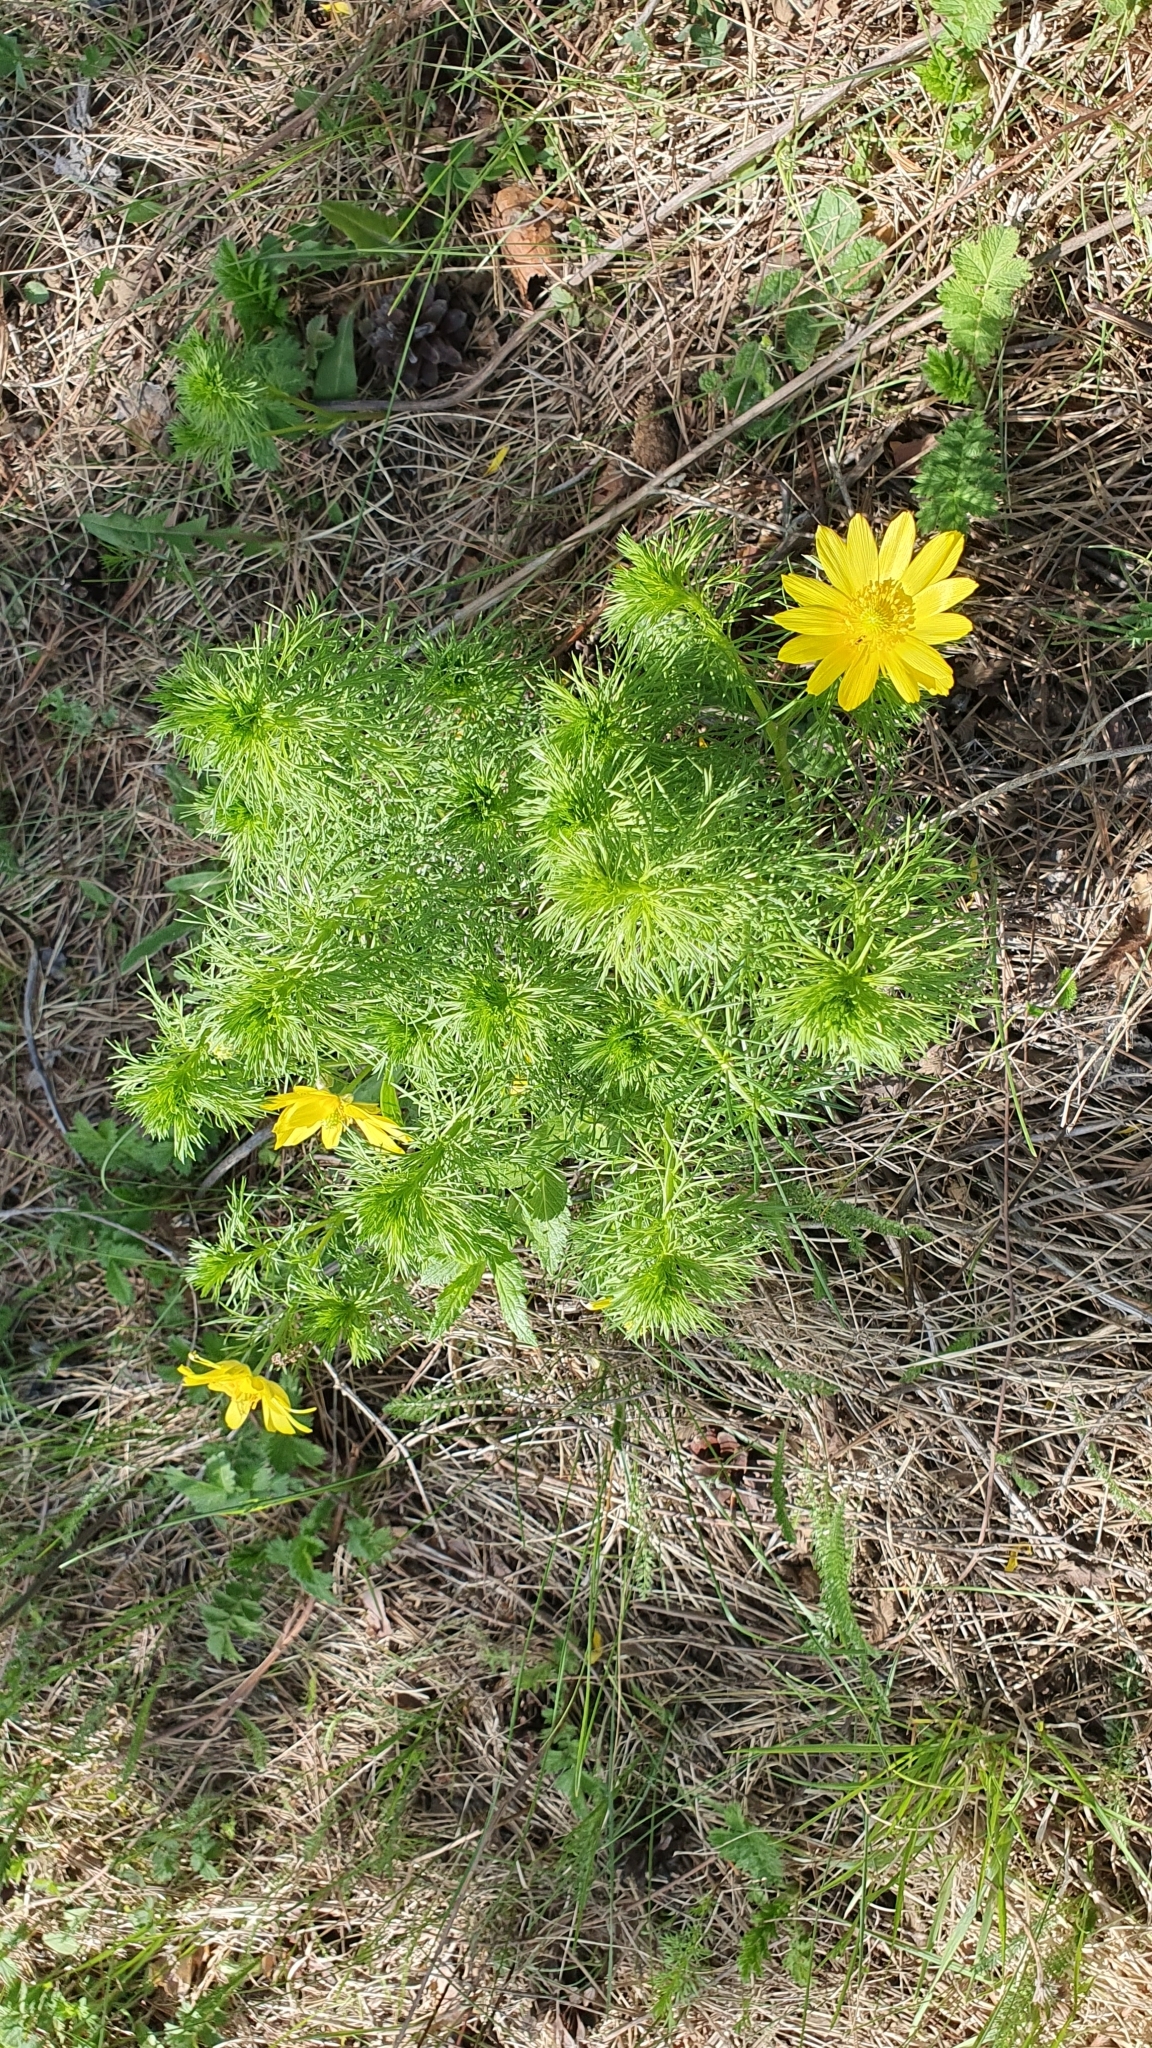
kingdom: Plantae
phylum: Tracheophyta
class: Magnoliopsida
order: Ranunculales
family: Ranunculaceae
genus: Adonis
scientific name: Adonis vernalis
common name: Yellow pheasants-eye
